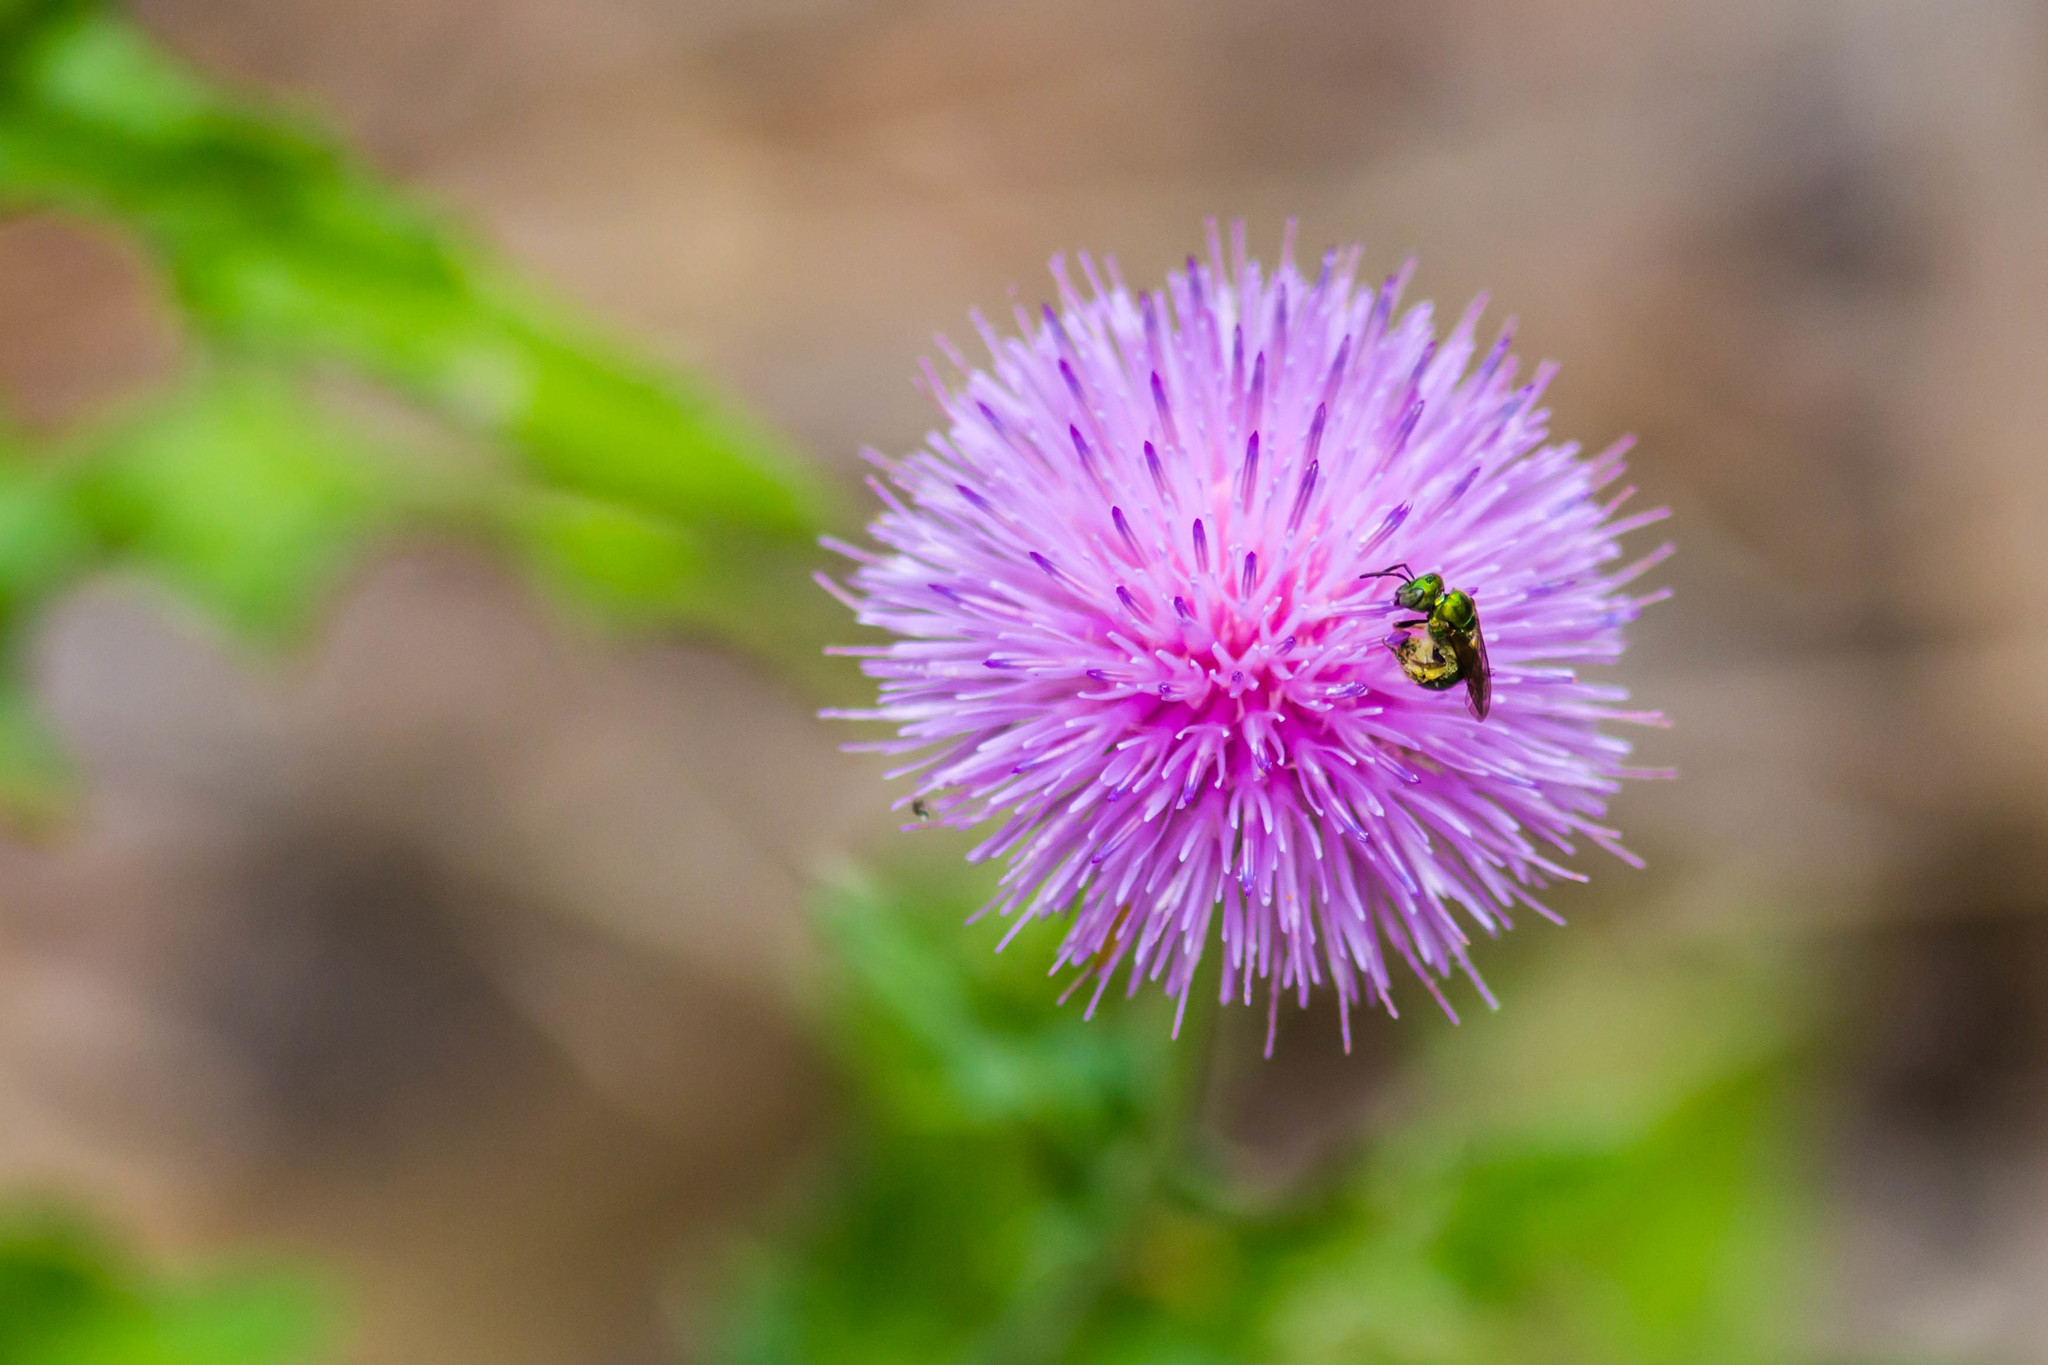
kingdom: Animalia
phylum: Arthropoda
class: Insecta
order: Hymenoptera
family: Halictidae
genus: Augochlora
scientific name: Augochlora aurifera
